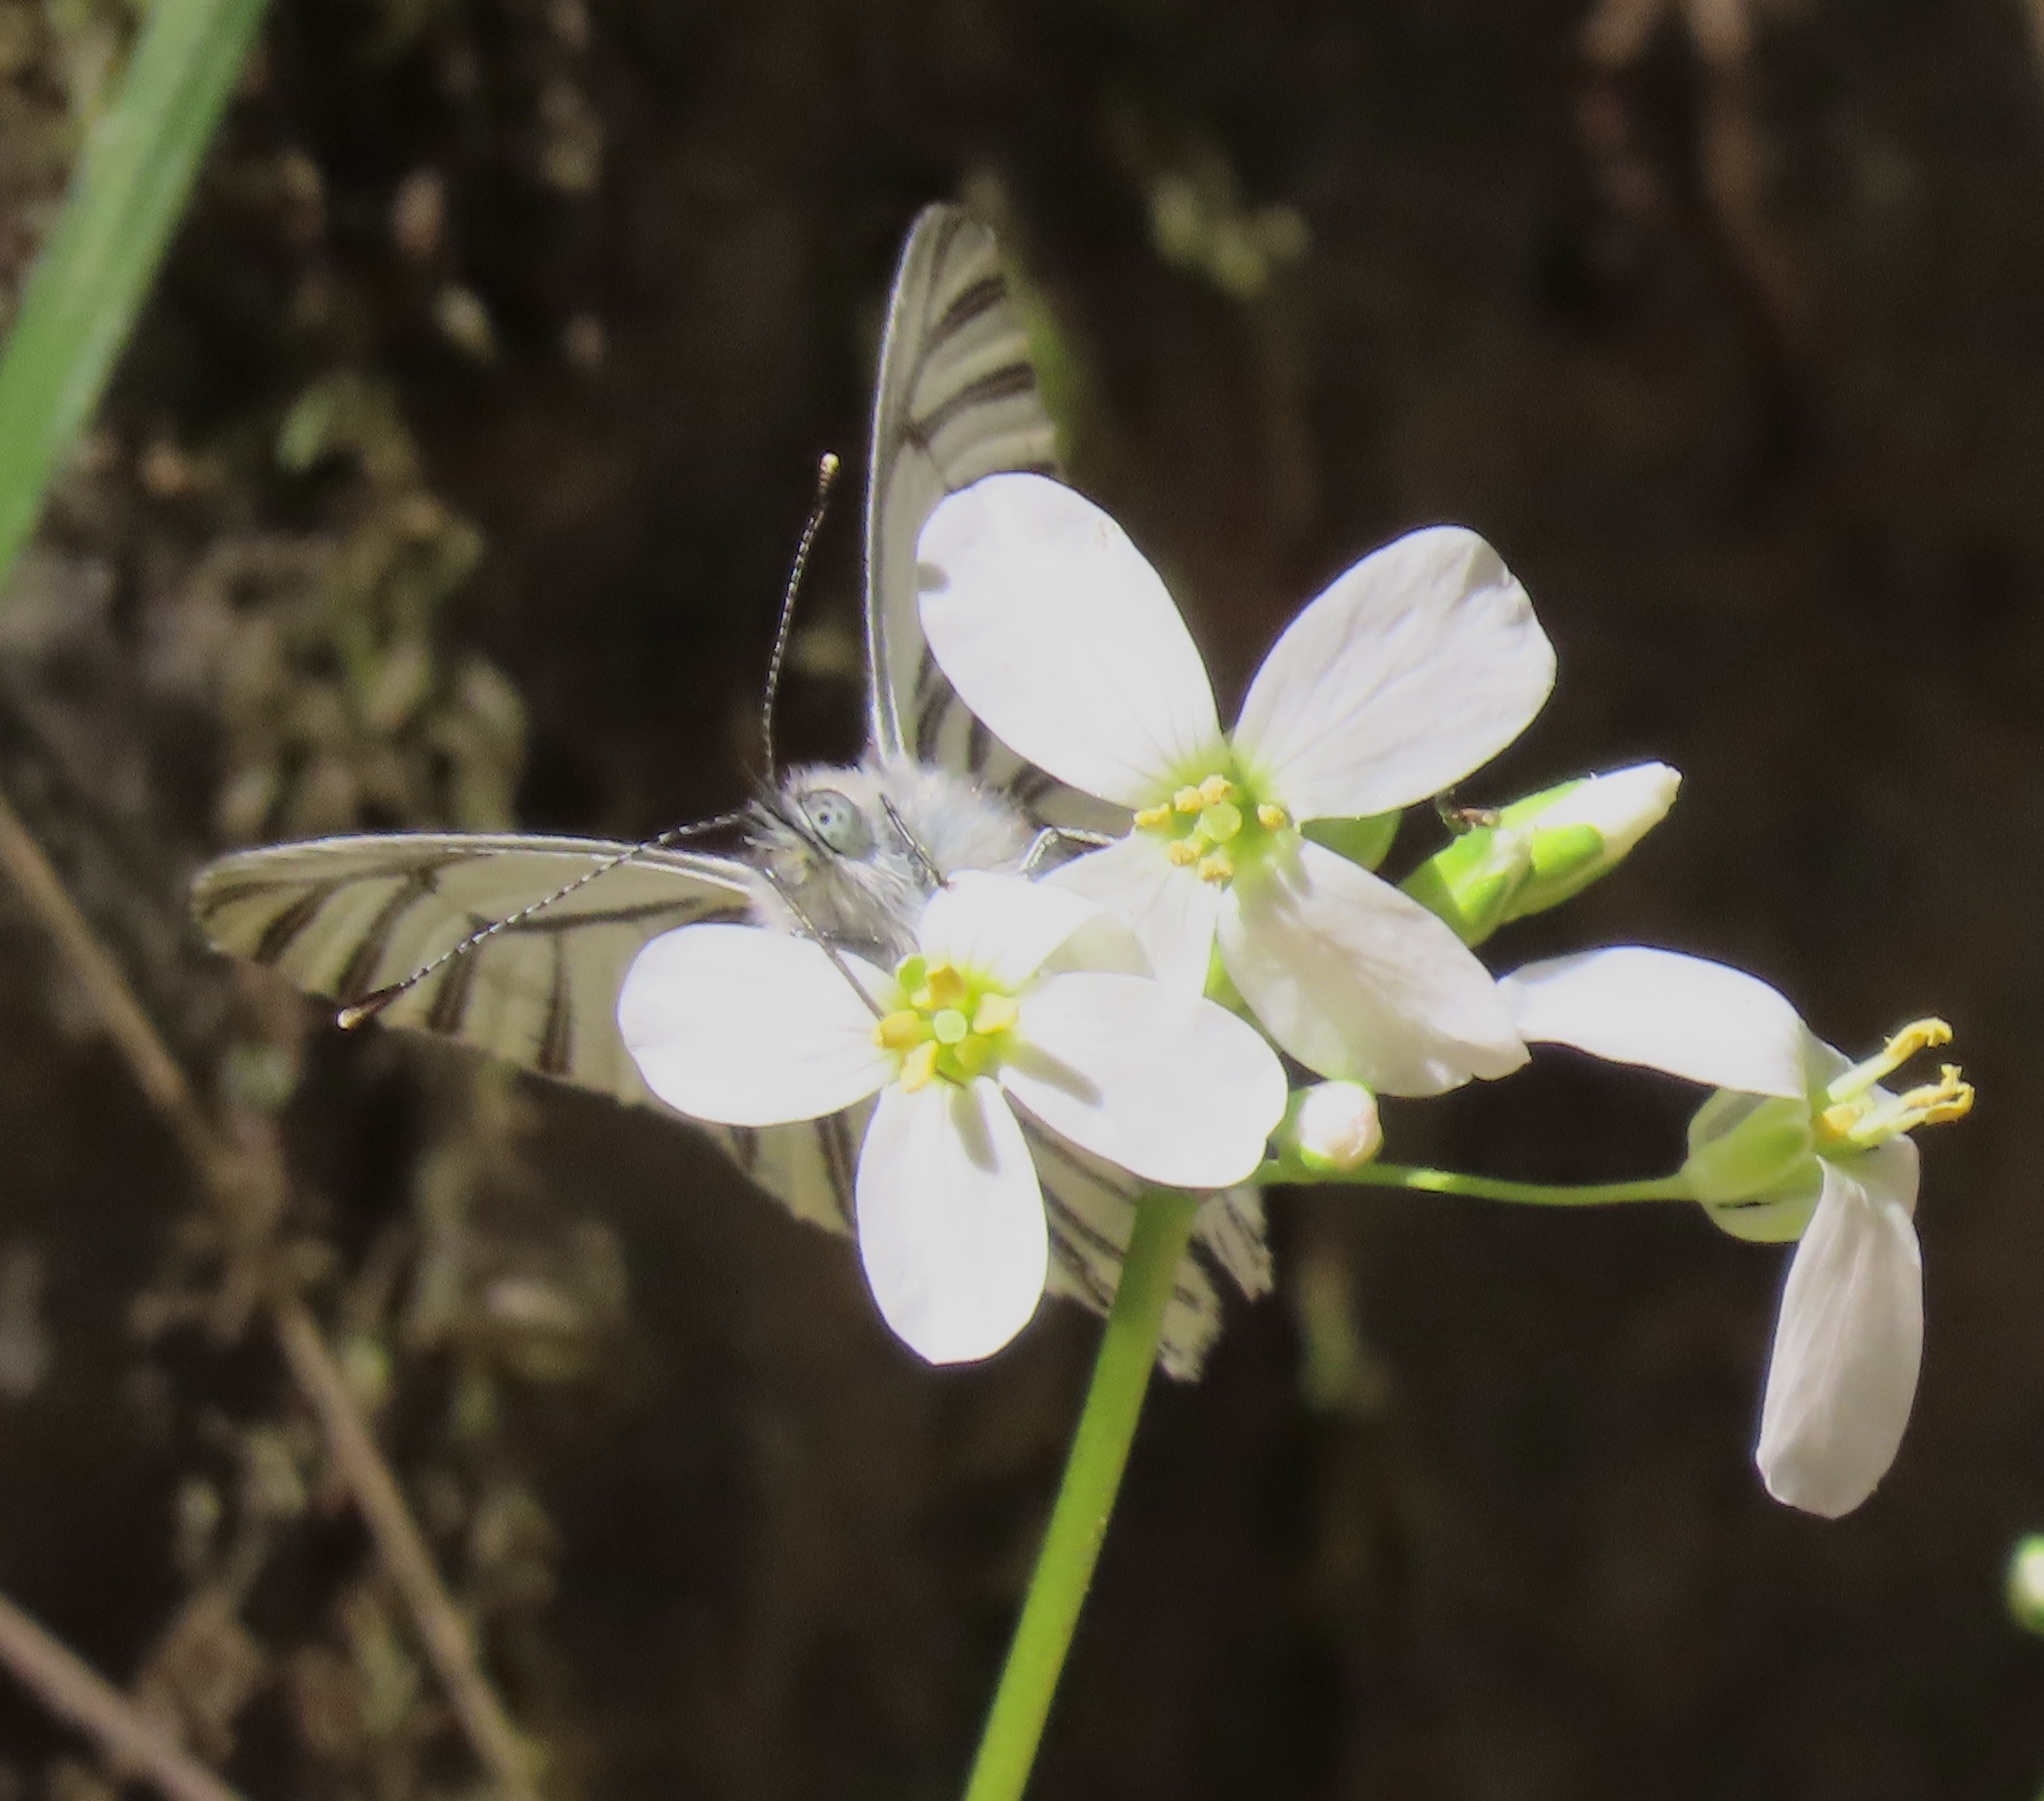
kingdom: Animalia
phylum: Arthropoda
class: Insecta
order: Lepidoptera
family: Pieridae
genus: Pieris
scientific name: Pieris marginalis
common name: Margined white
